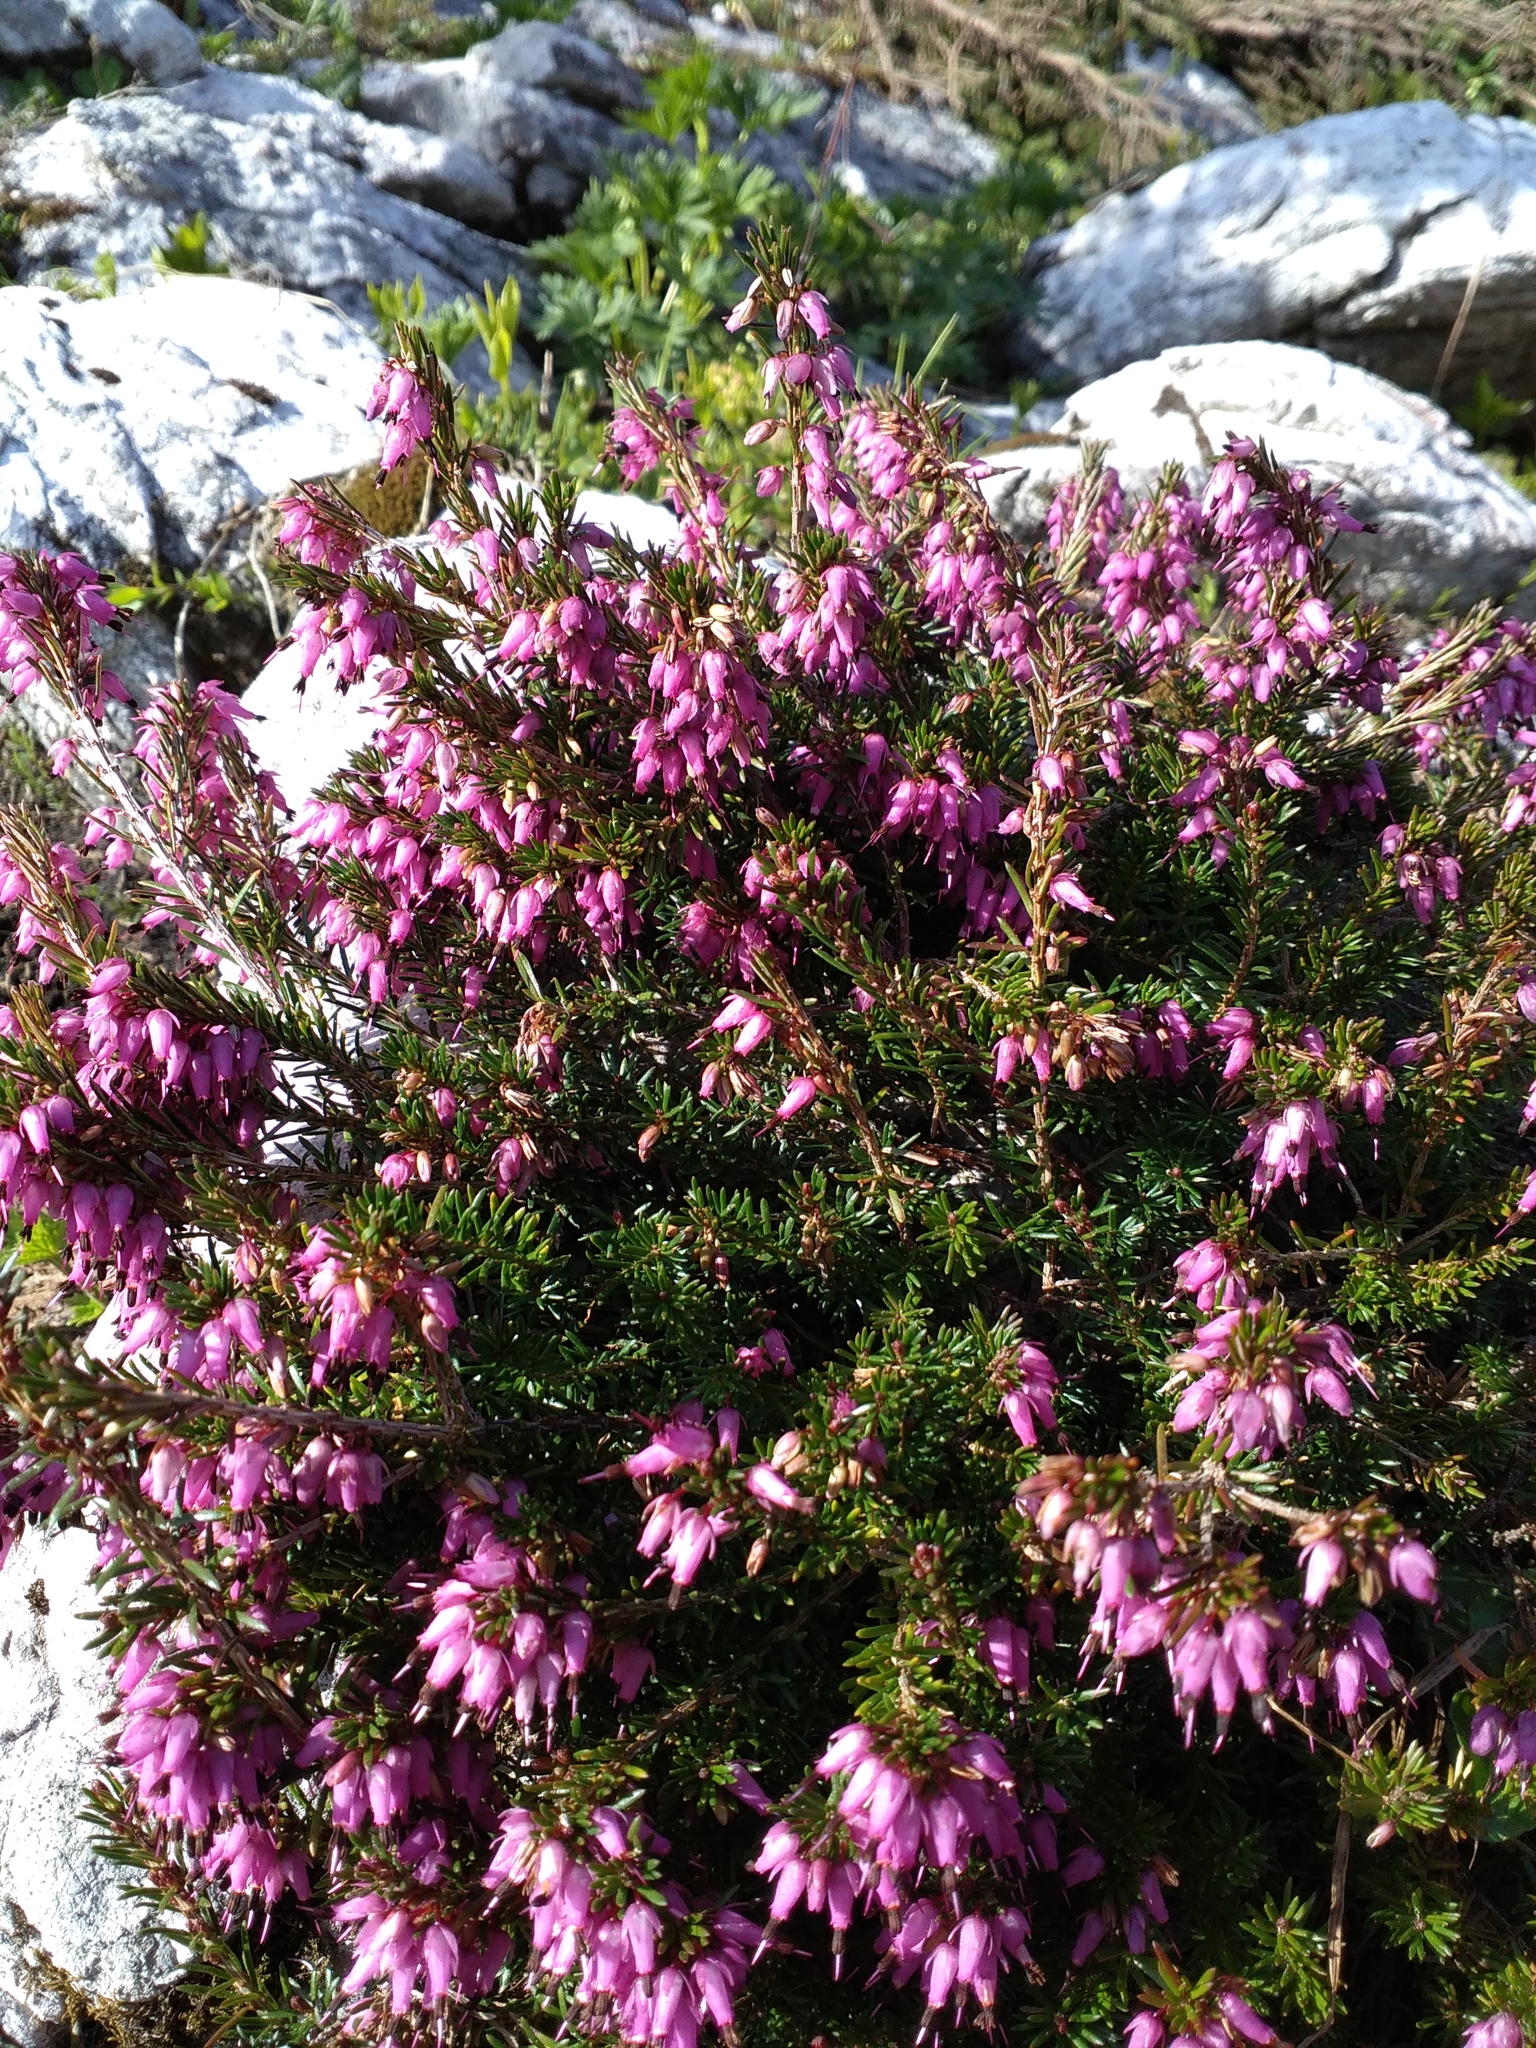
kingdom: Plantae
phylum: Tracheophyta
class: Magnoliopsida
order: Ericales
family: Ericaceae
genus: Erica
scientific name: Erica carnea
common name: Winter heath
